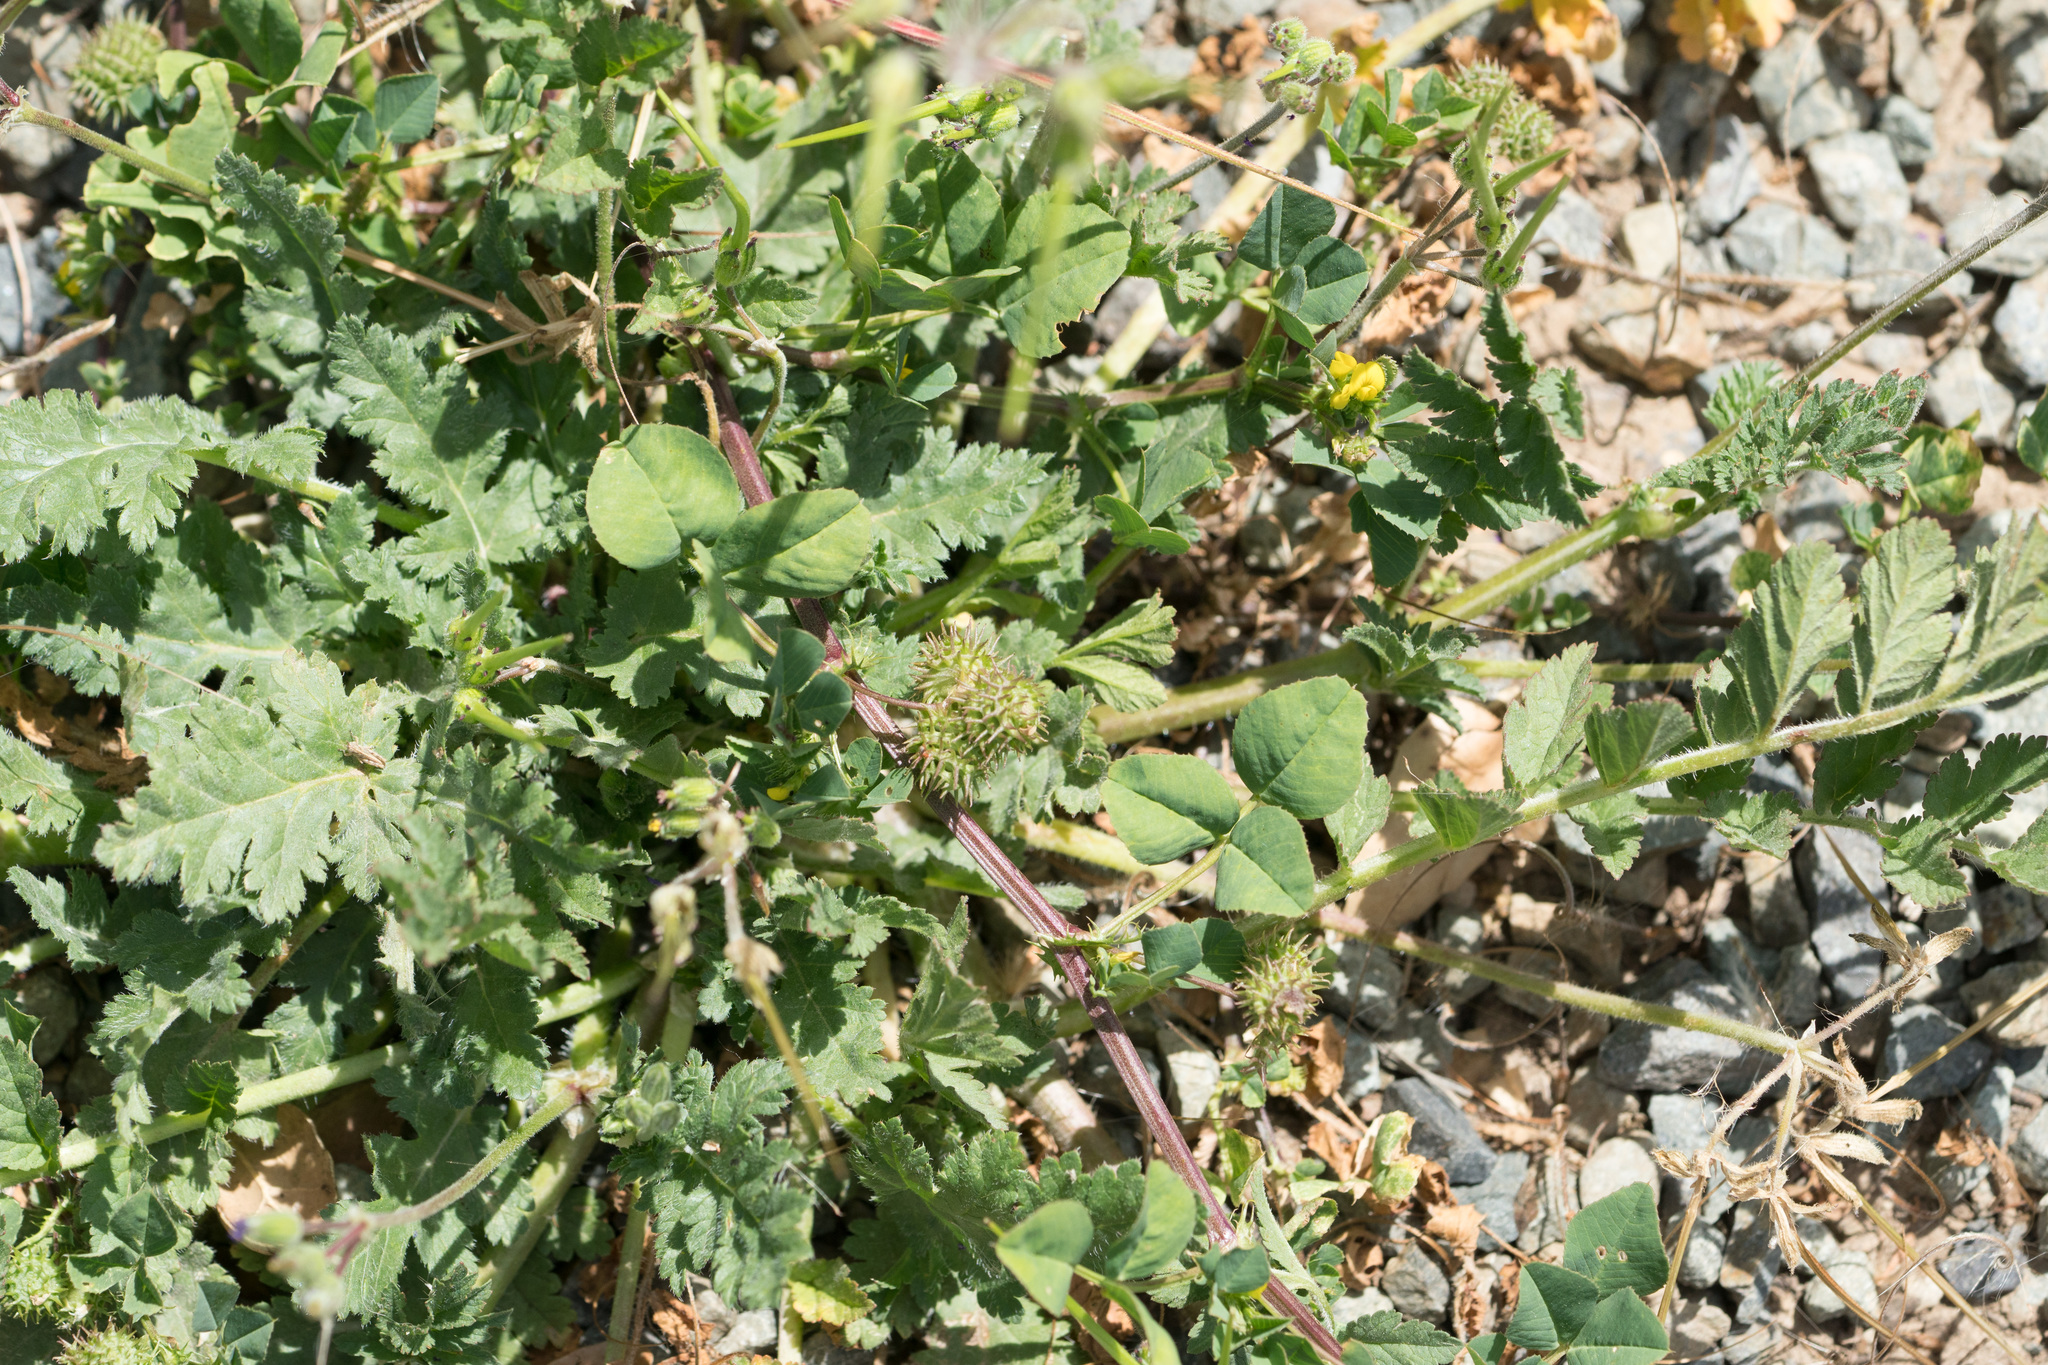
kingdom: Plantae
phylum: Tracheophyta
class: Magnoliopsida
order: Fabales
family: Fabaceae
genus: Medicago
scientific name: Medicago polymorpha
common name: Burclover
